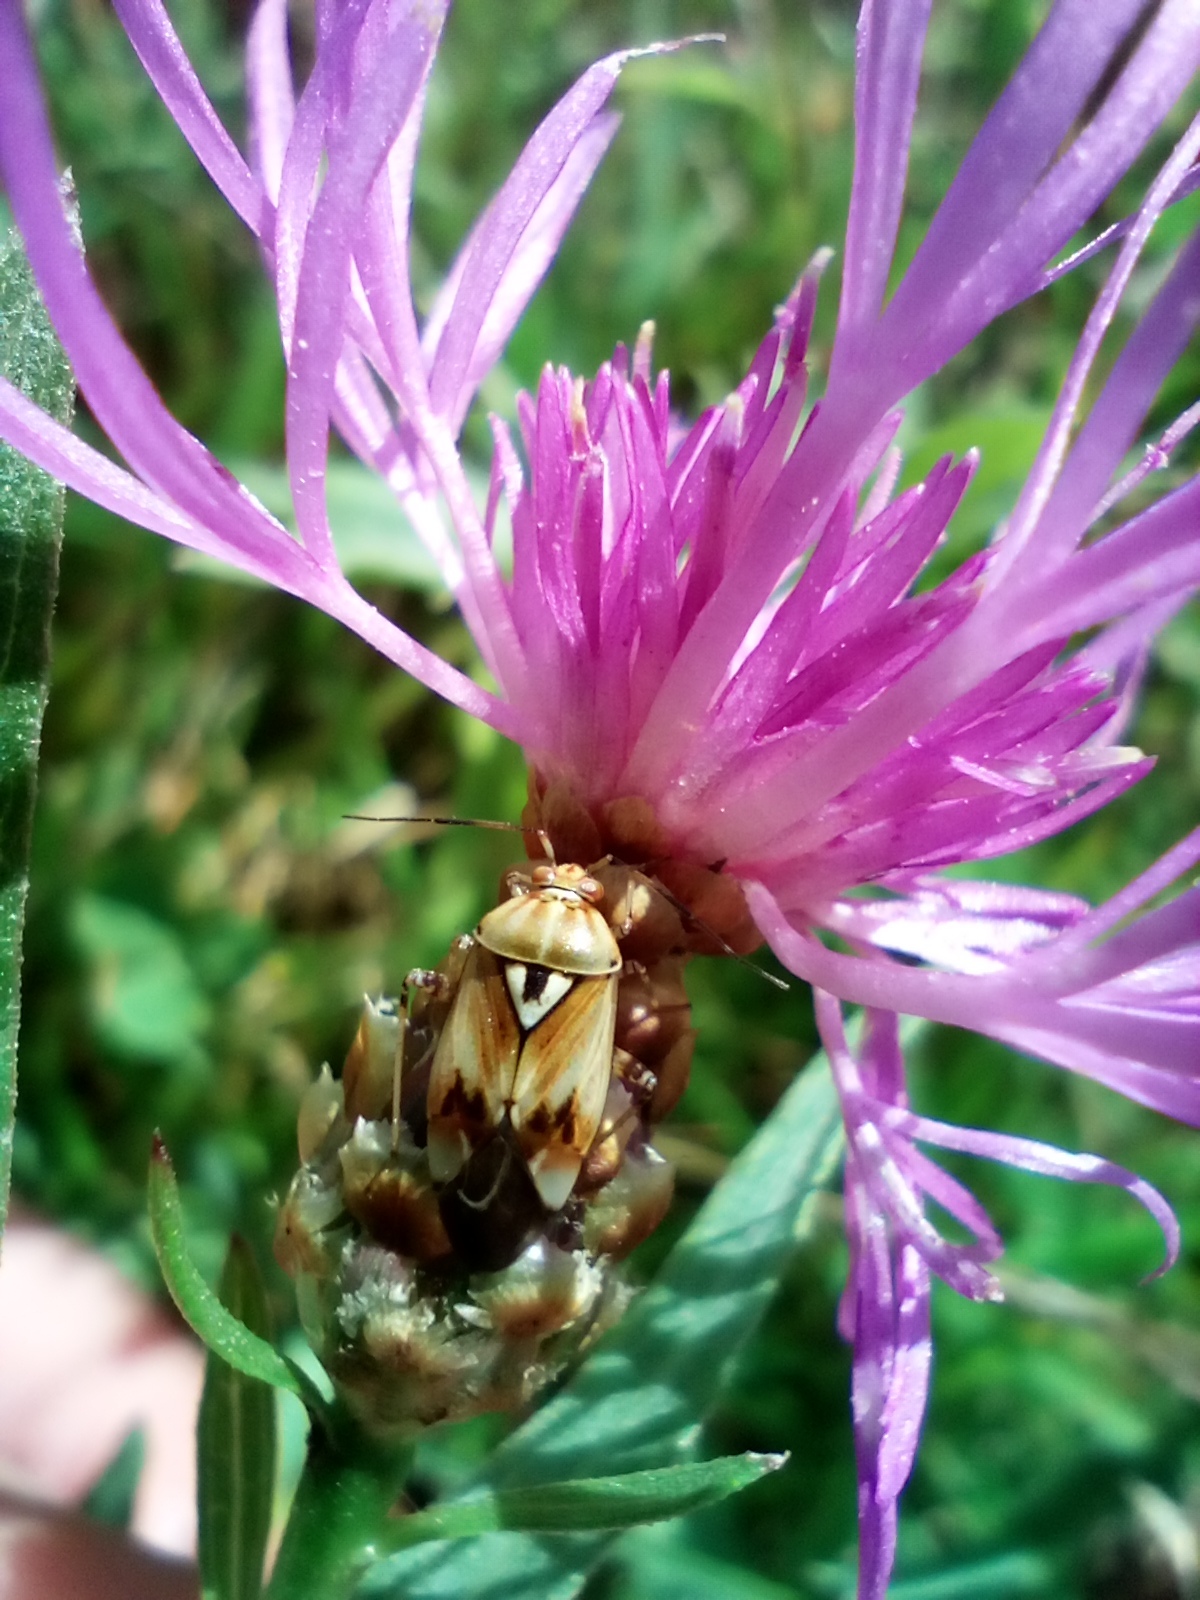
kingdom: Plantae
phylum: Tracheophyta
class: Magnoliopsida
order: Asterales
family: Asteraceae
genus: Centaurea
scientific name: Centaurea jacea
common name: Brown knapweed
